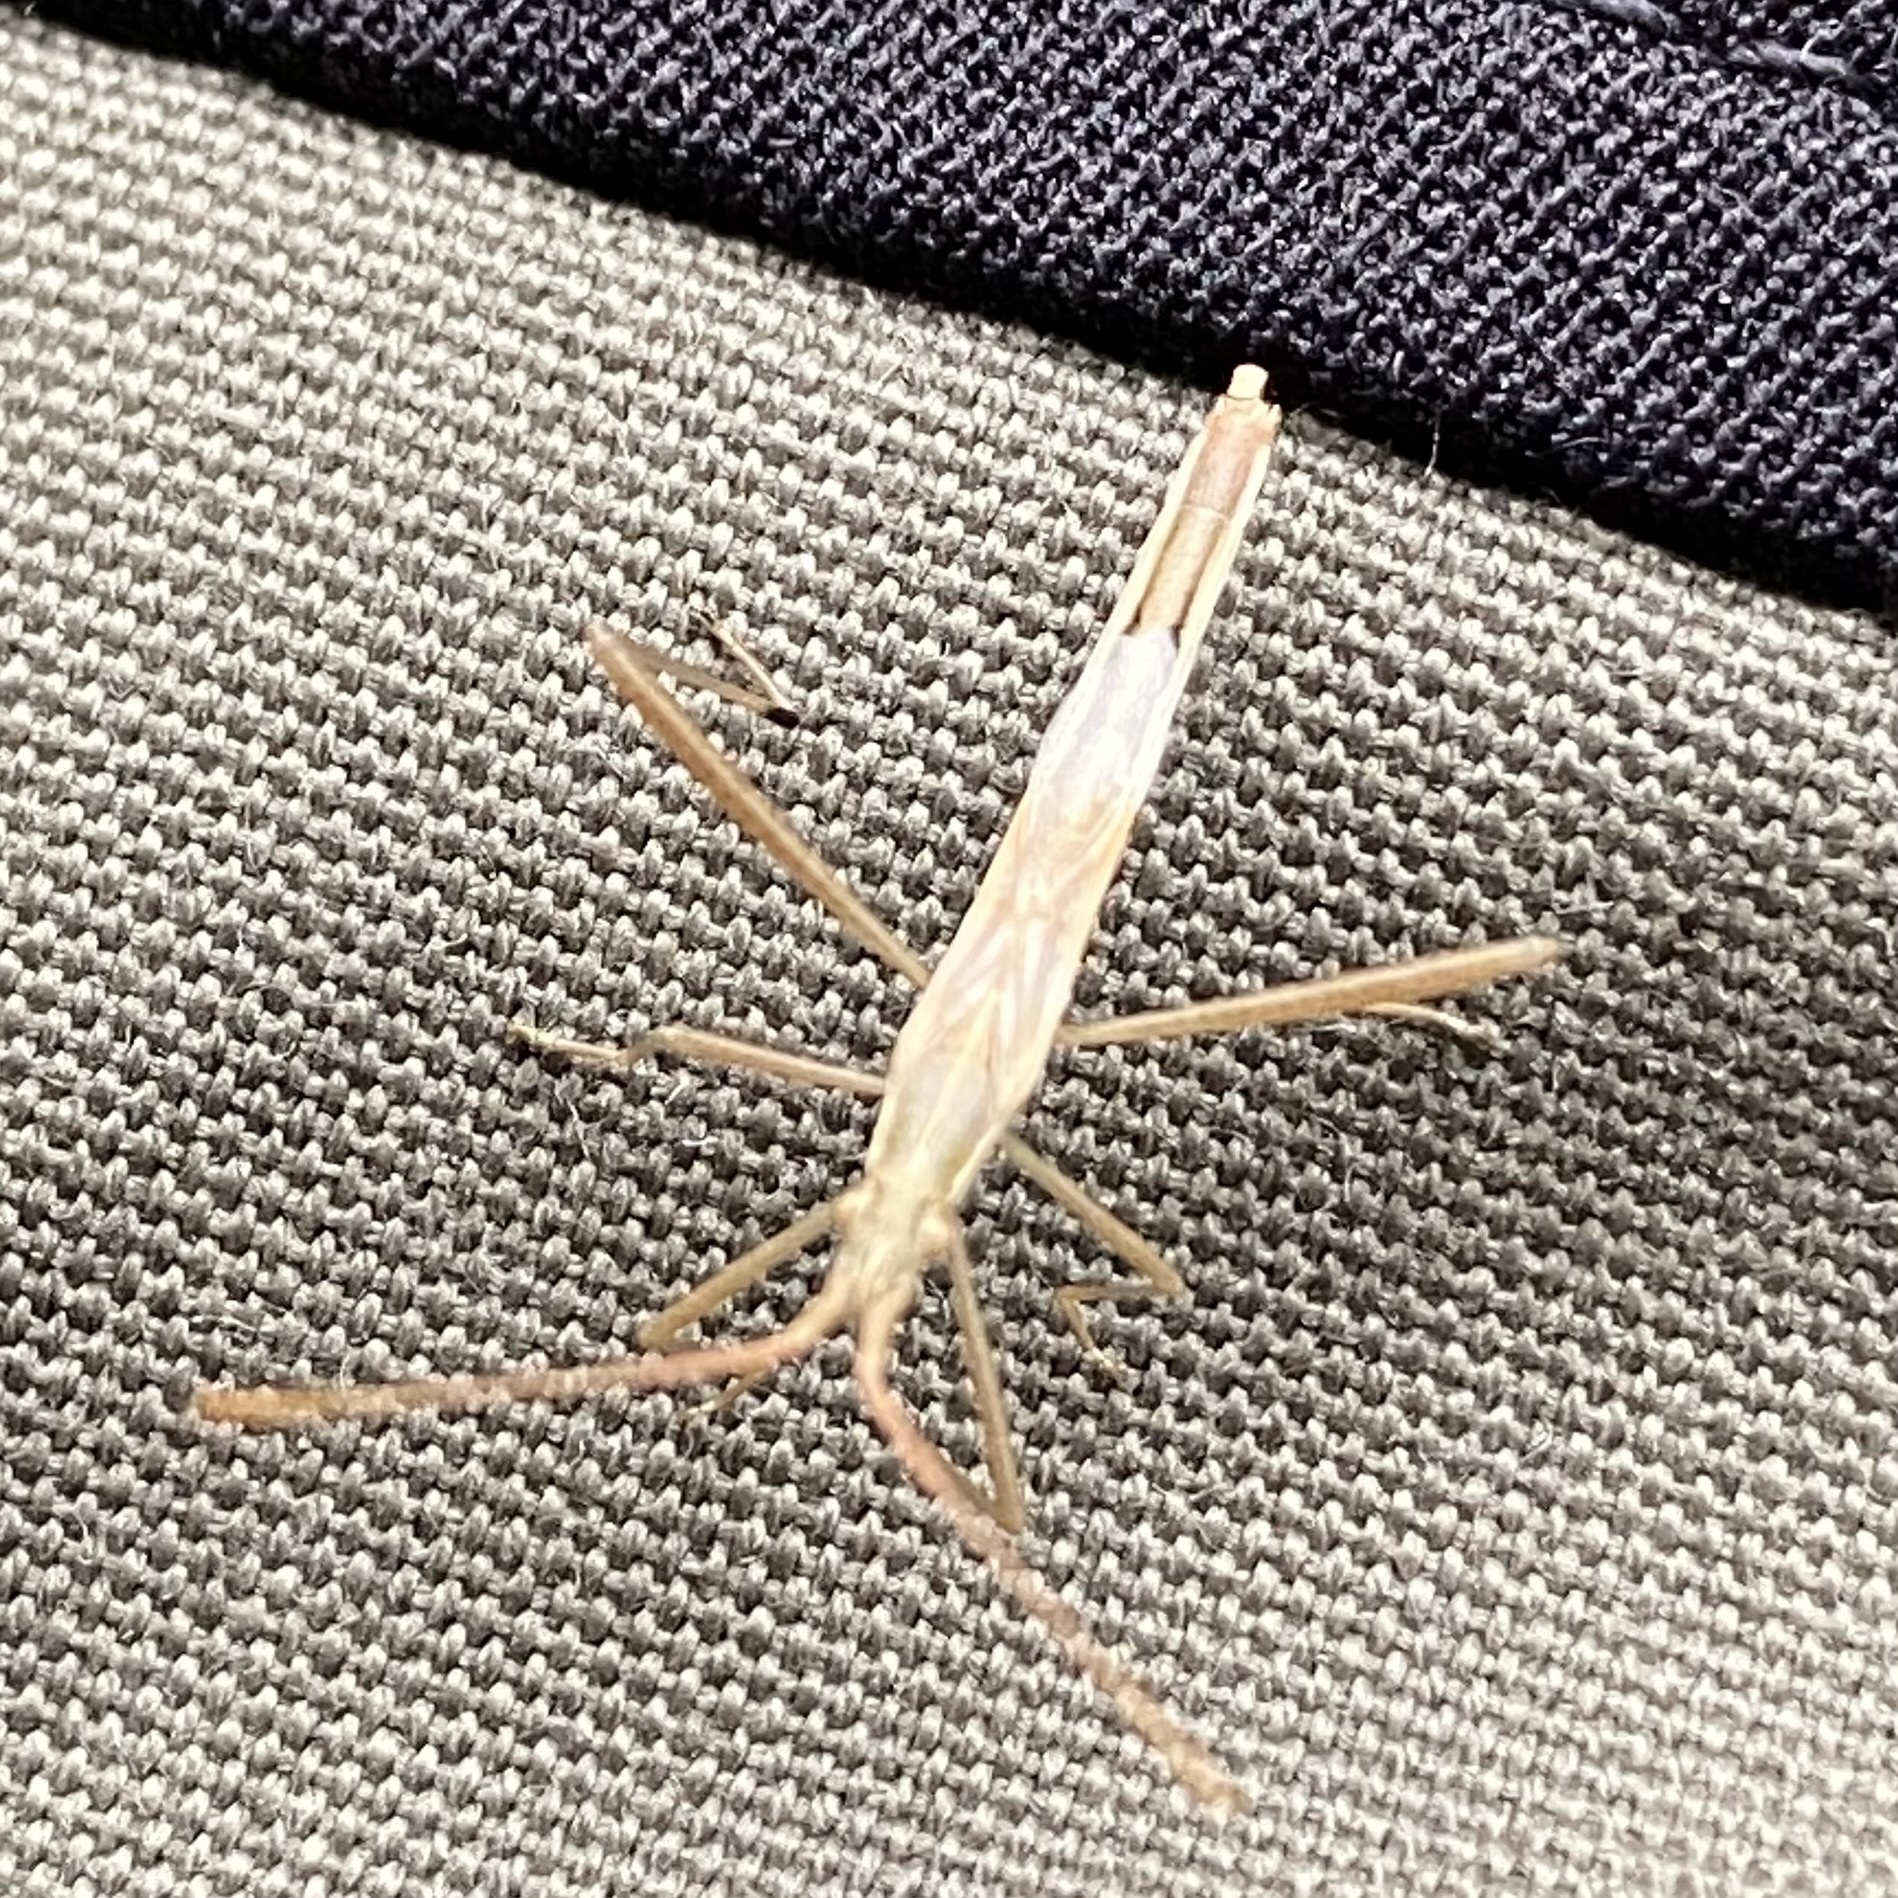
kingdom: Animalia
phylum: Arthropoda
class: Insecta
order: Hemiptera
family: Rhopalidae
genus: Chorosoma
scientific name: Chorosoma schillingii
